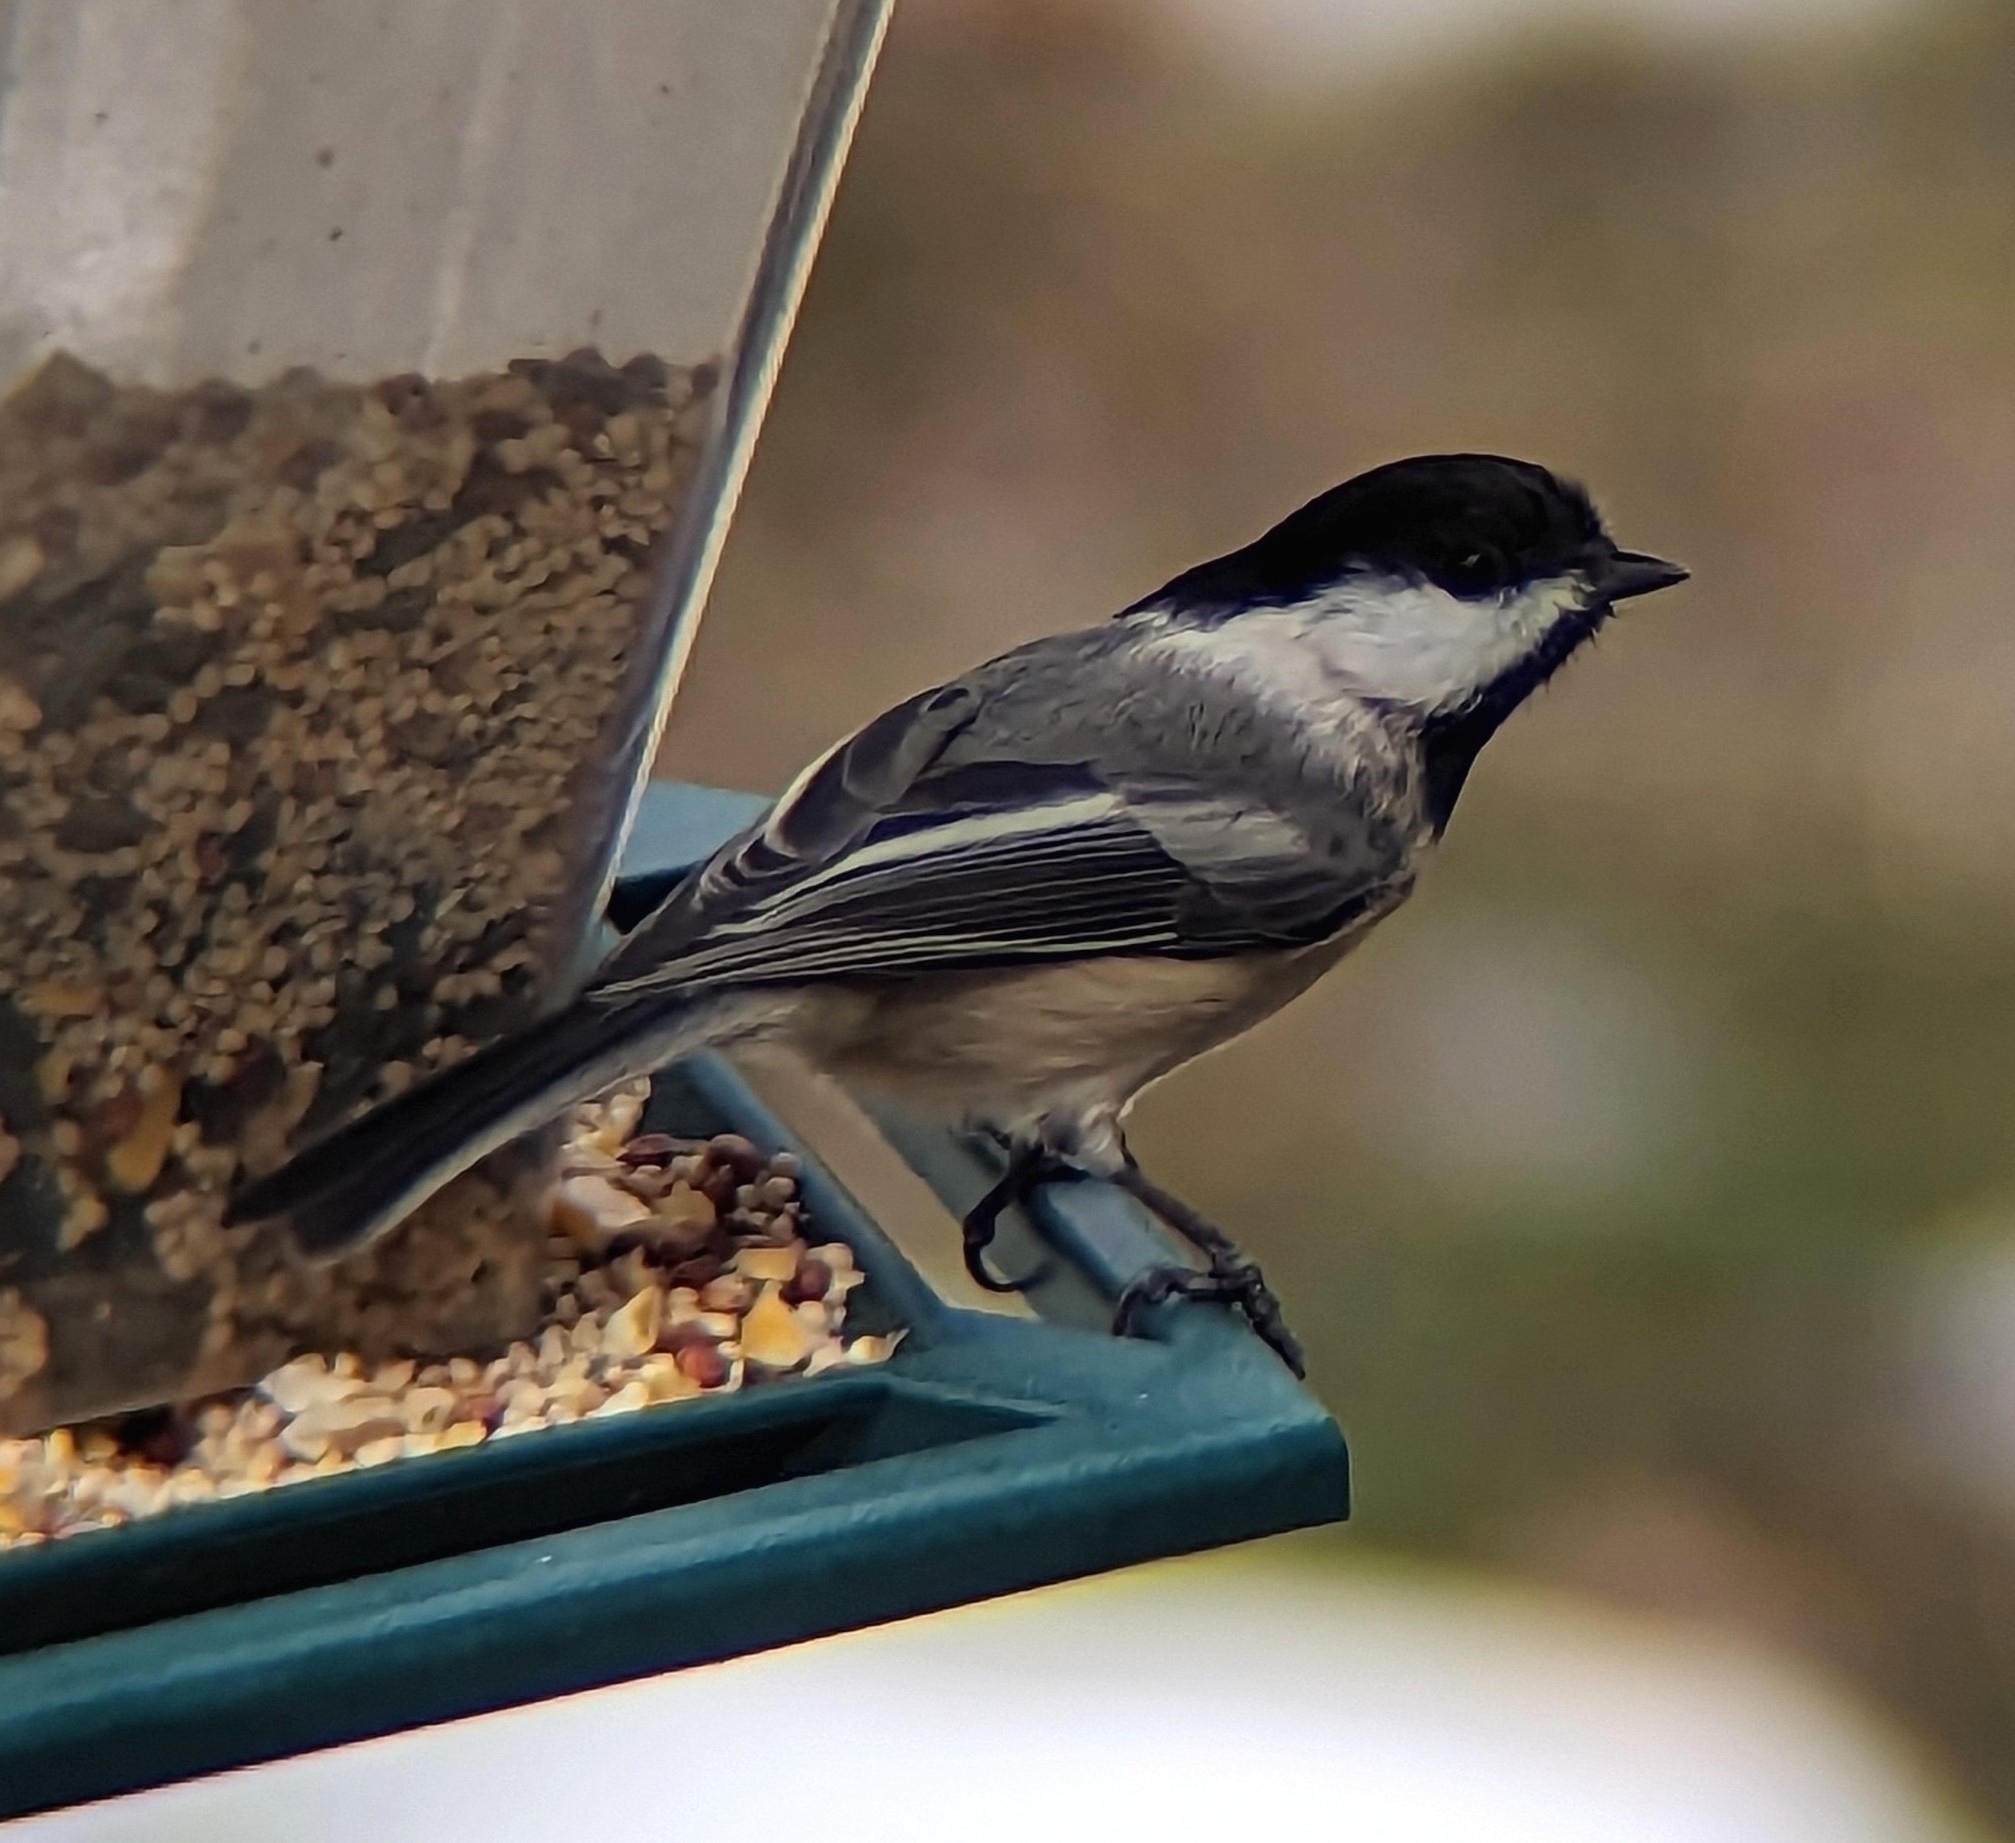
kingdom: Animalia
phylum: Chordata
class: Aves
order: Passeriformes
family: Paridae
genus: Poecile
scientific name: Poecile atricapillus
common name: Black-capped chickadee
